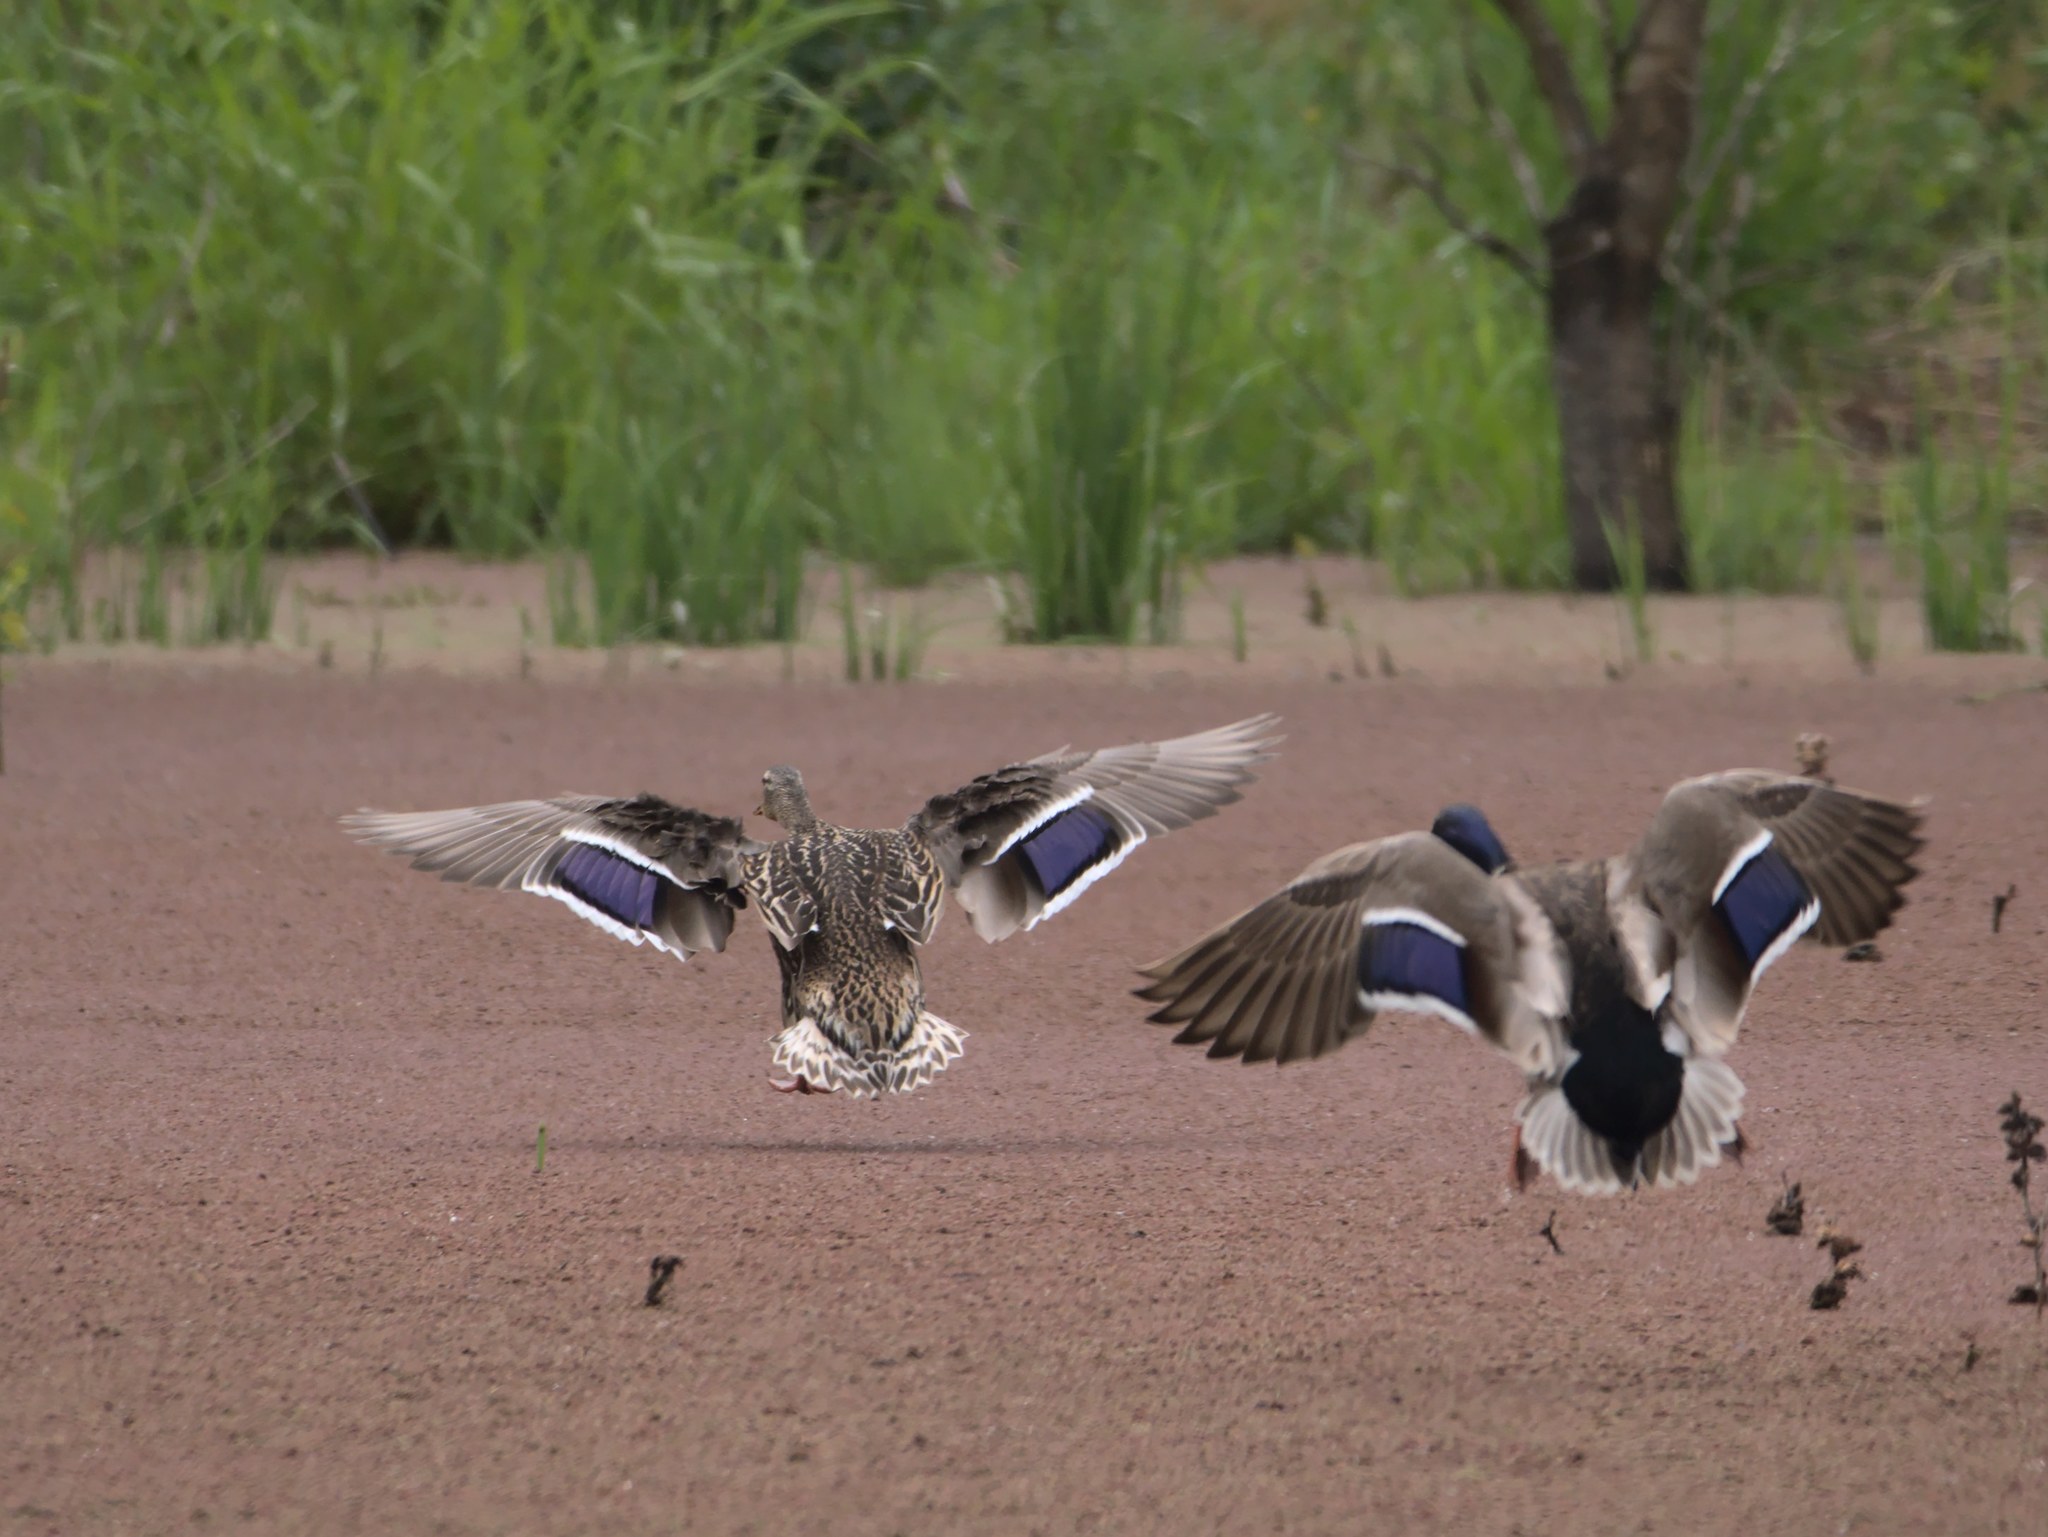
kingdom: Animalia
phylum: Chordata
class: Aves
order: Anseriformes
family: Anatidae
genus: Anas
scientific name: Anas platyrhynchos
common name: Mallard
